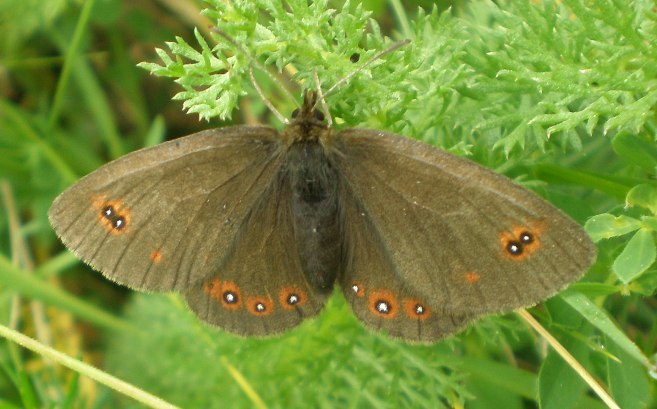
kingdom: Animalia
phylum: Arthropoda
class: Insecta
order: Lepidoptera
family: Nymphalidae
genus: Erebia
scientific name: Erebia oeme
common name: Bright-eyed ringlet
